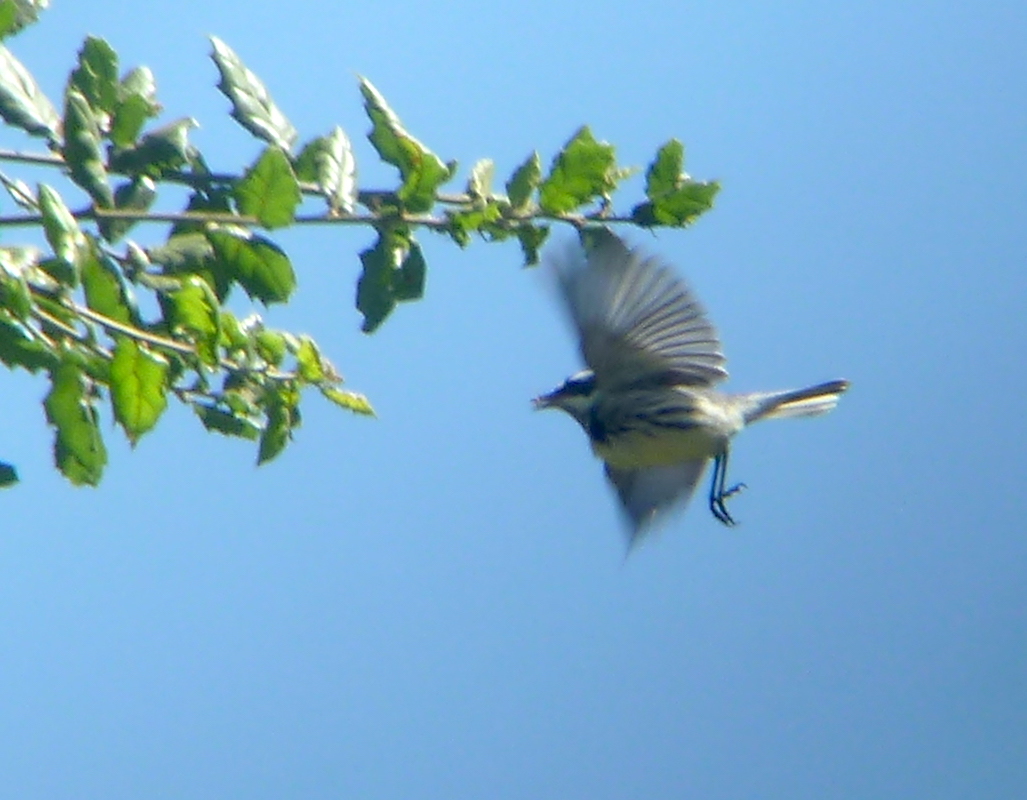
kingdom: Animalia
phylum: Chordata
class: Aves
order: Passeriformes
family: Parulidae
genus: Setophaga
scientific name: Setophaga nigrescens
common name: Black-throated gray warbler
